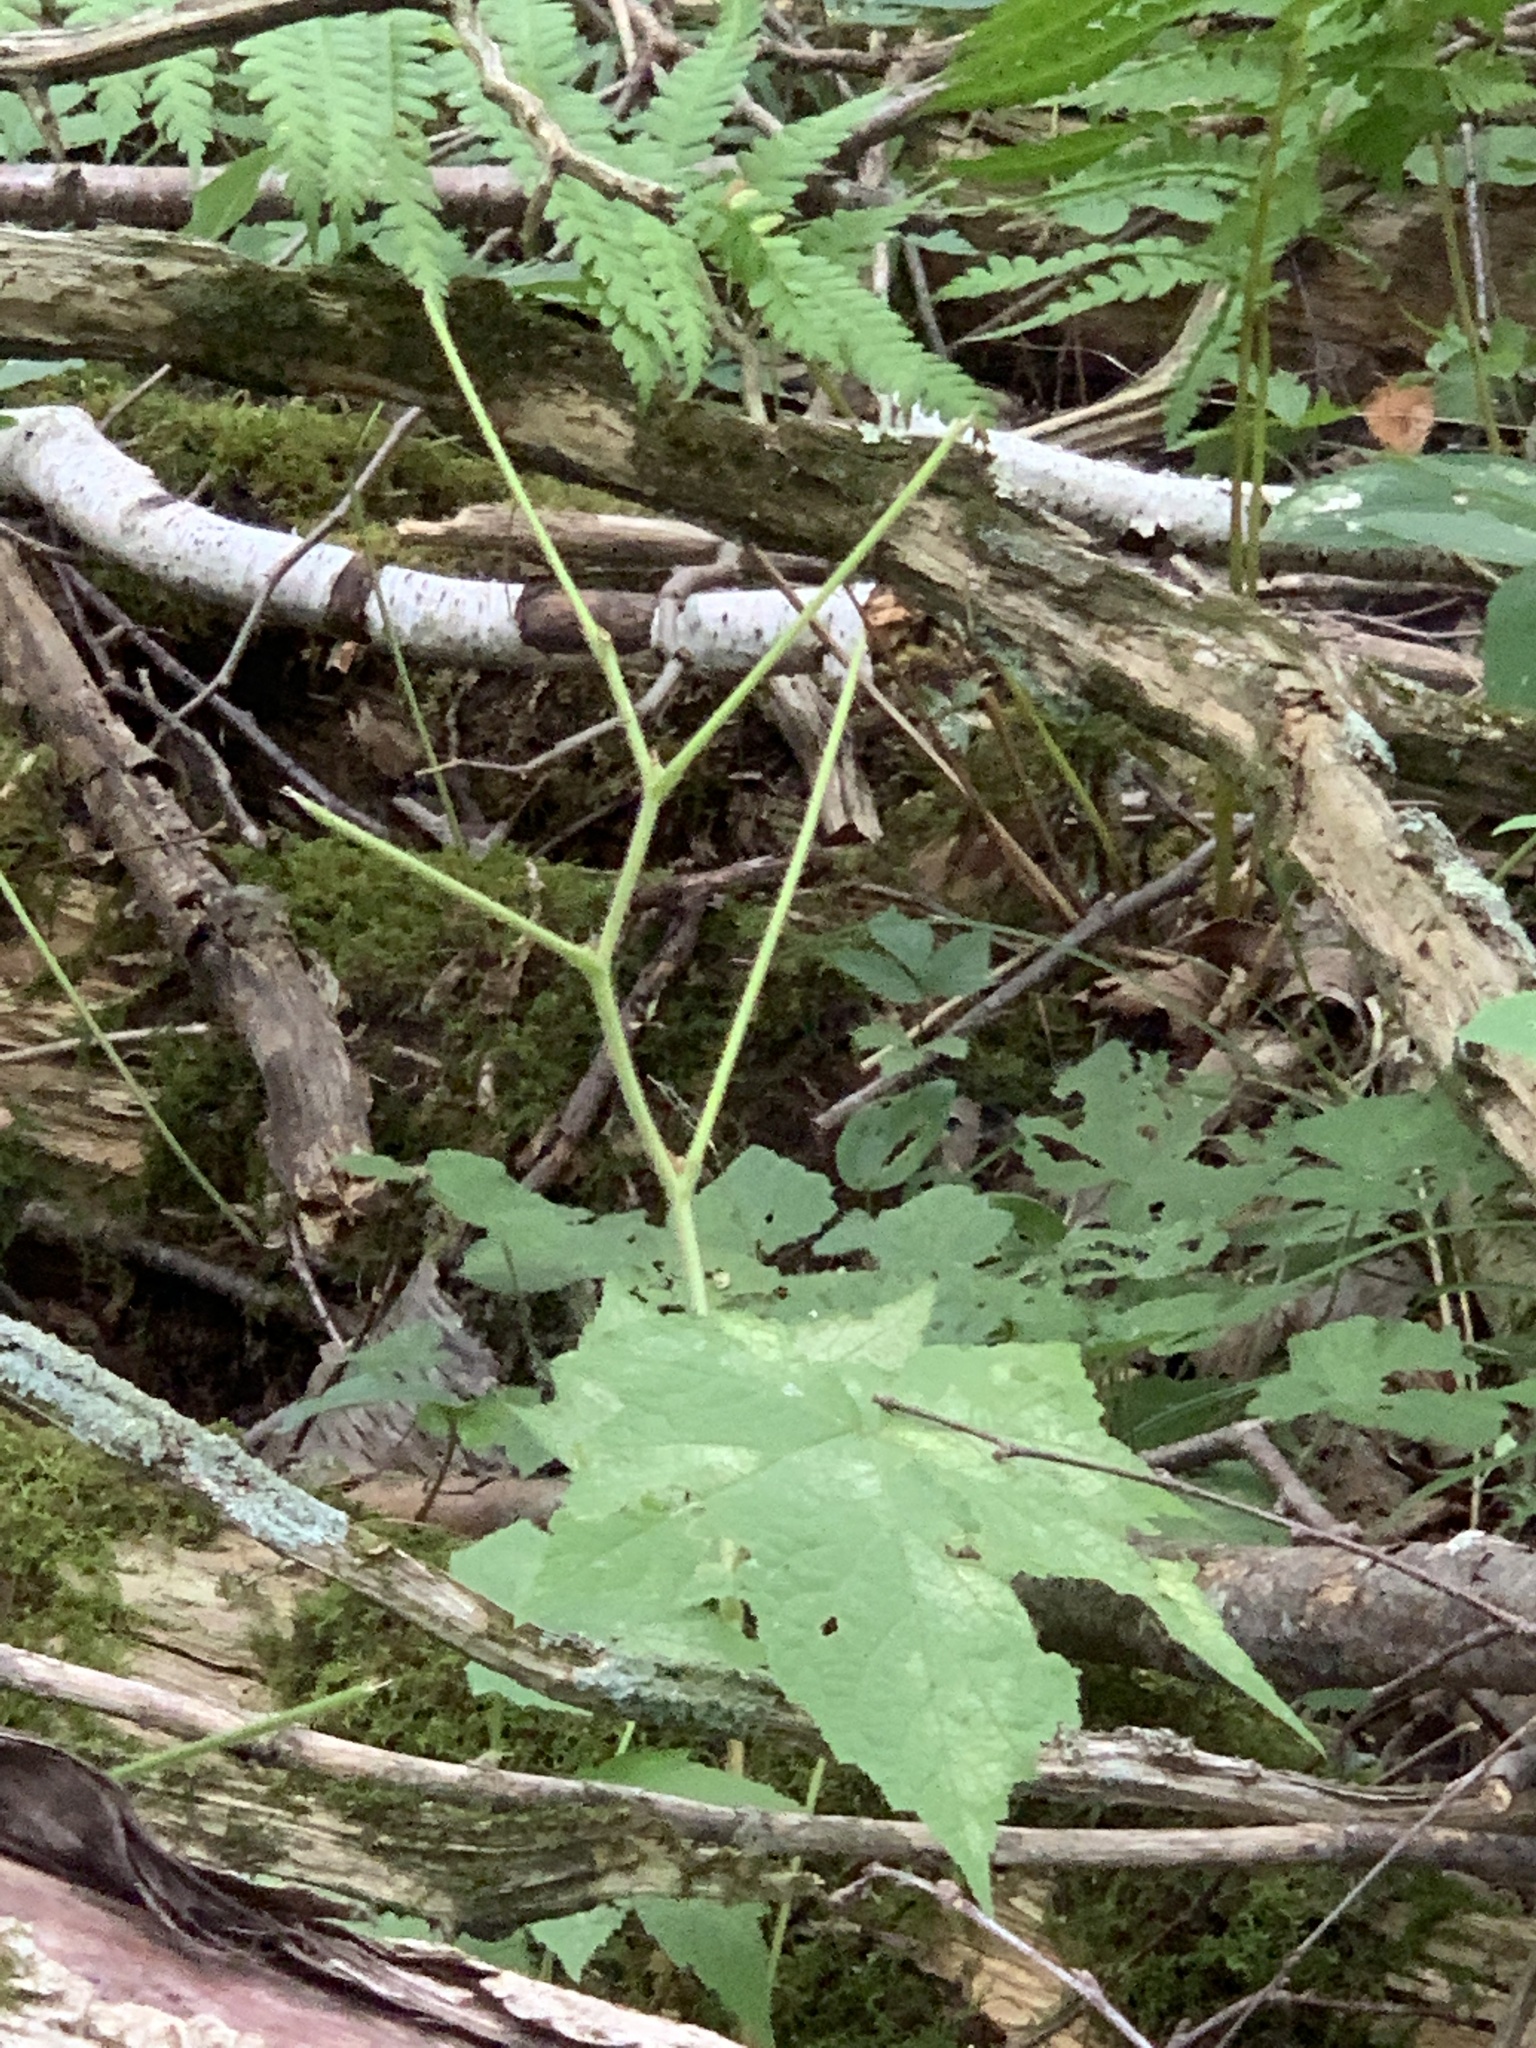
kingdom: Plantae
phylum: Tracheophyta
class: Magnoliopsida
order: Rosales
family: Rosaceae
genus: Rubus
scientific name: Rubus odoratus
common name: Purple-flowered raspberry
